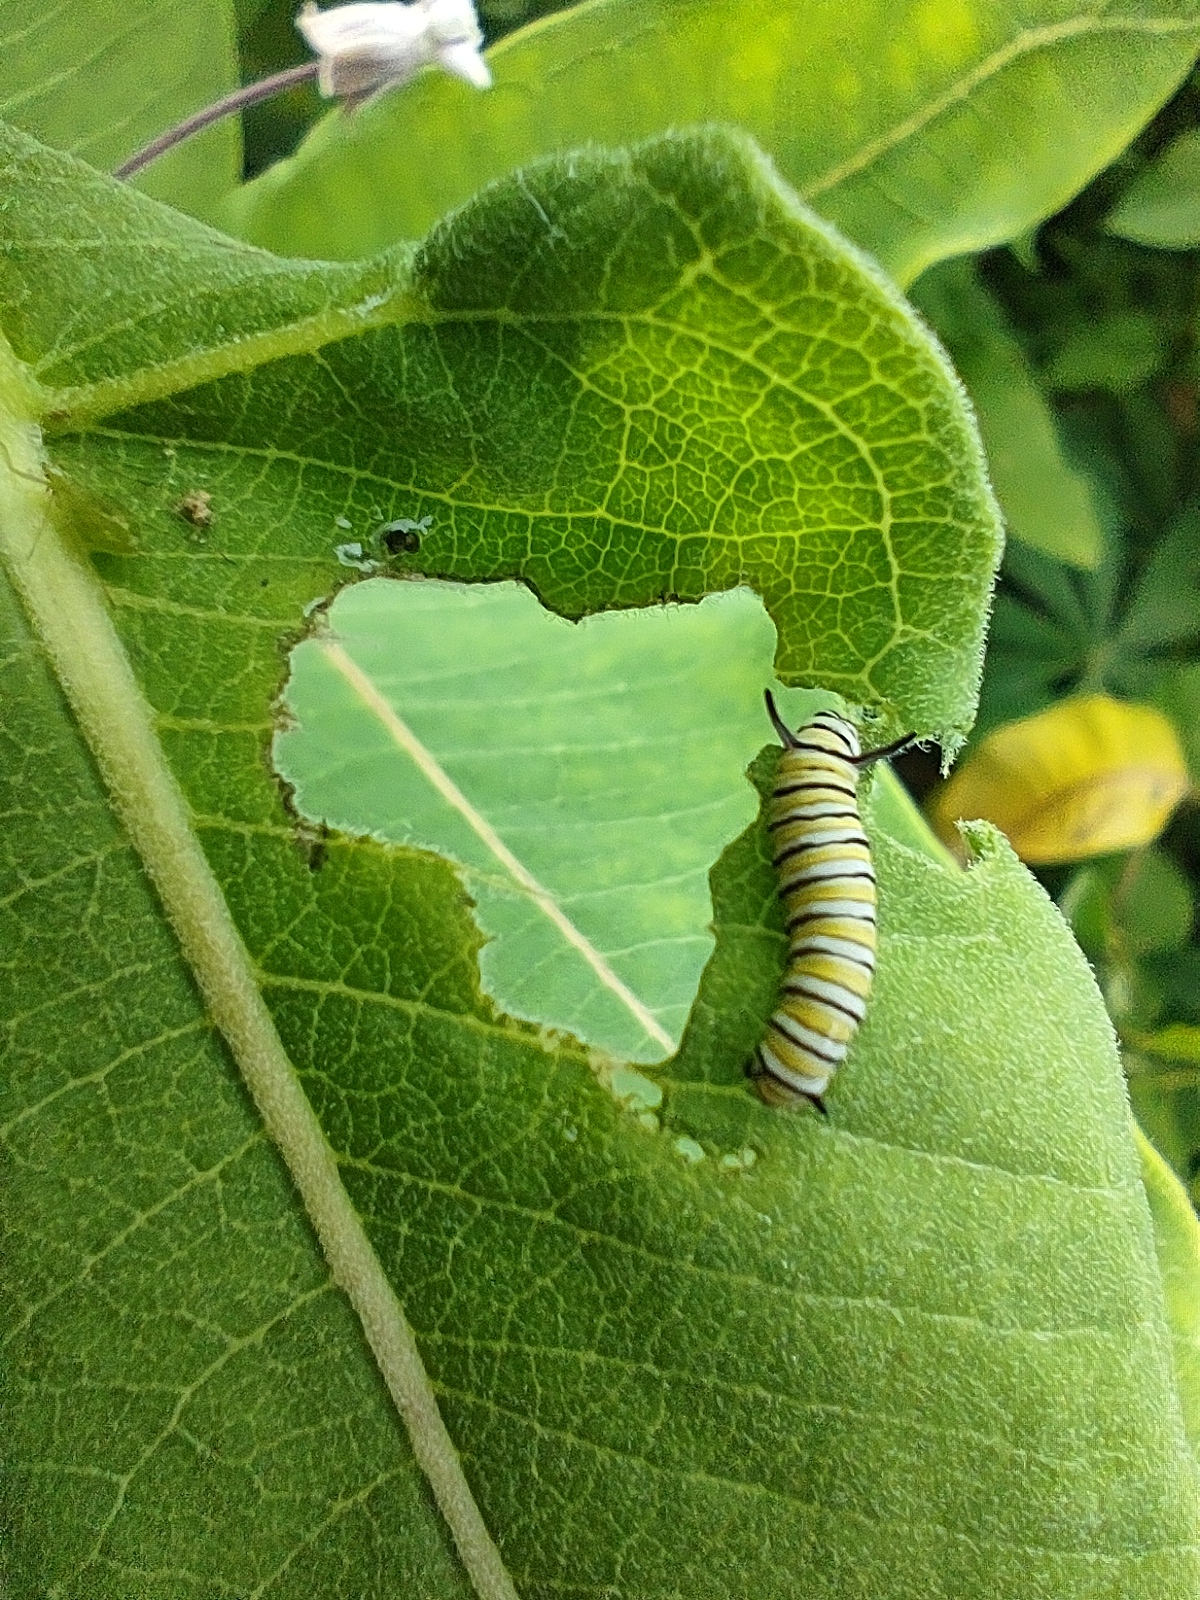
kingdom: Animalia
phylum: Arthropoda
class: Insecta
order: Lepidoptera
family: Nymphalidae
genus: Danaus
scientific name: Danaus plexippus
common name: Monarch
